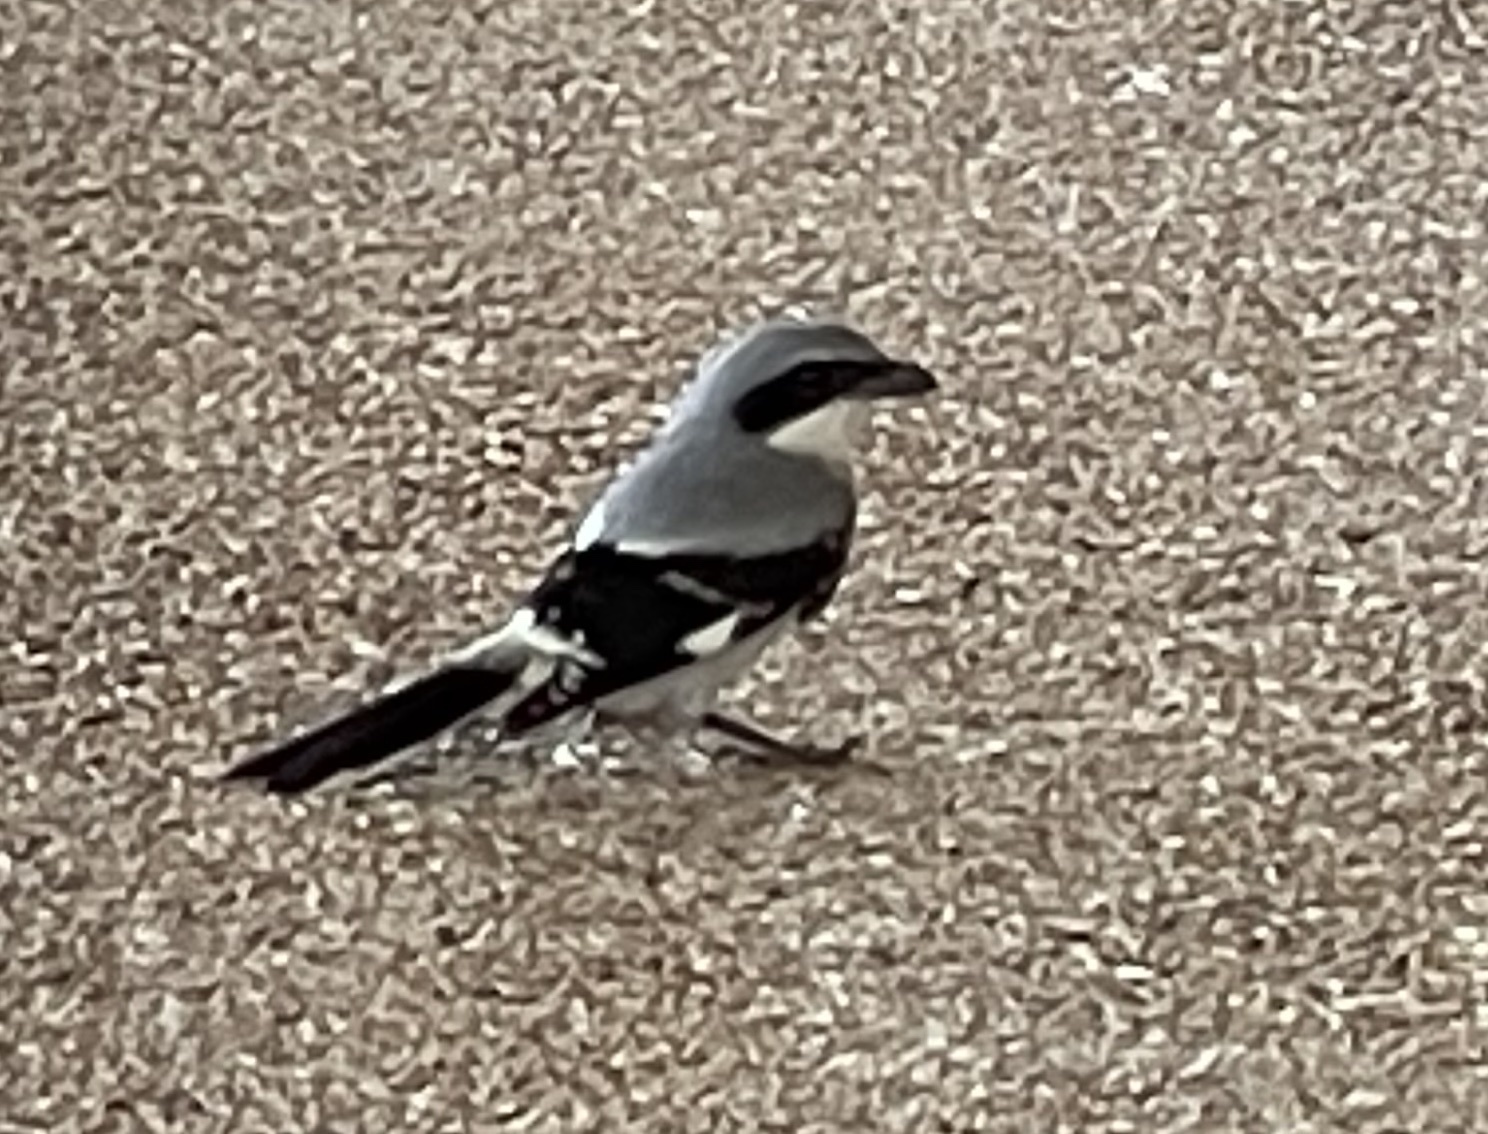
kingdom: Animalia
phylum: Chordata
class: Aves
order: Passeriformes
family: Laniidae
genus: Lanius
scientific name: Lanius ludovicianus
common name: Loggerhead shrike
